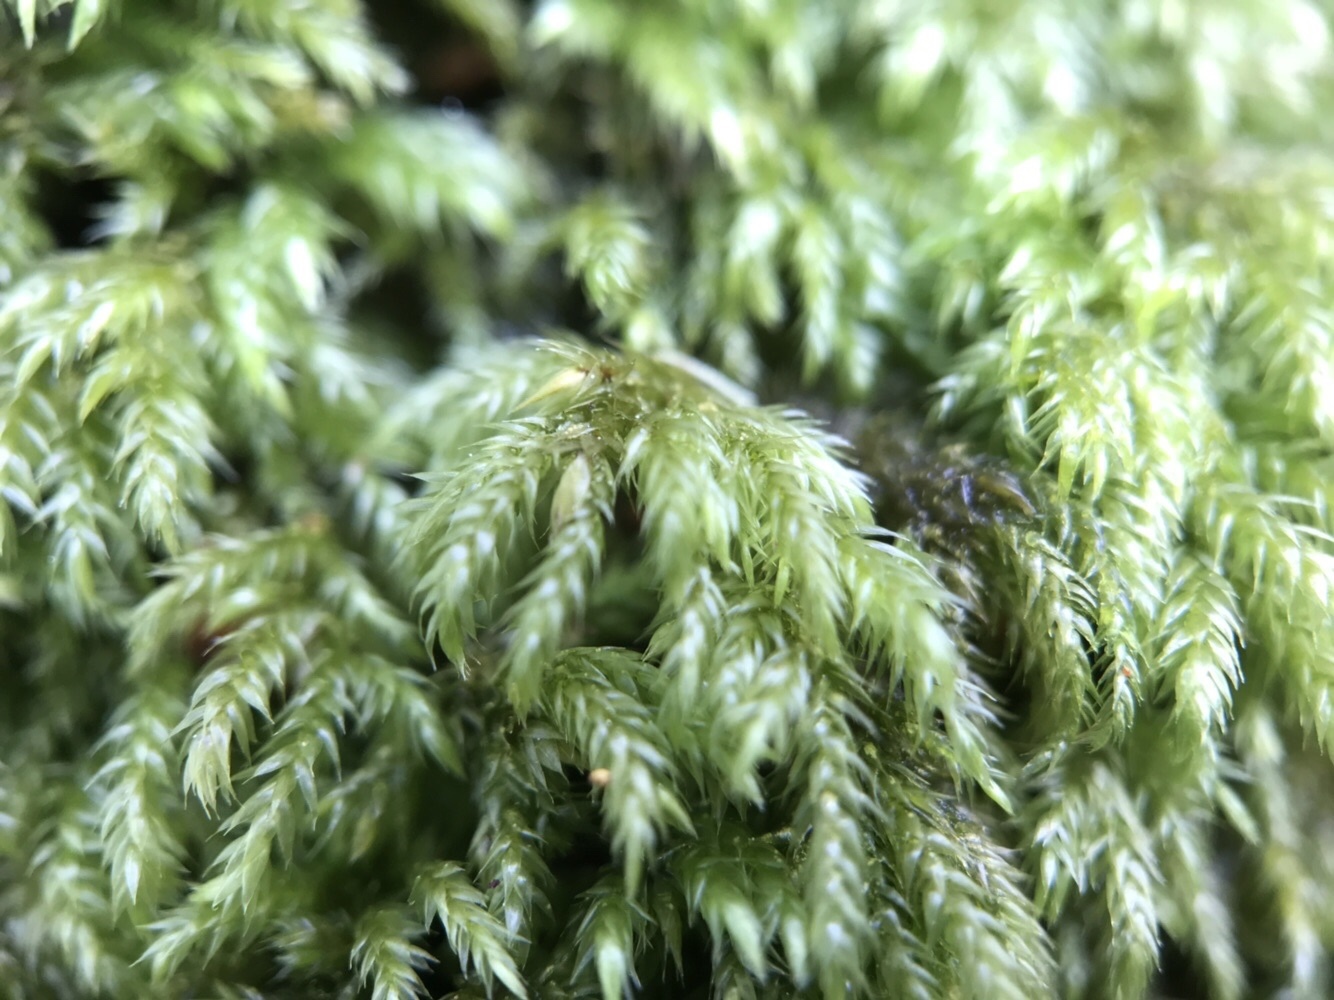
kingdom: Plantae
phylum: Bryophyta
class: Bryopsida
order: Hypnales
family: Lembophyllaceae
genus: Pseudisothecium
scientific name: Pseudisothecium myosuroides
